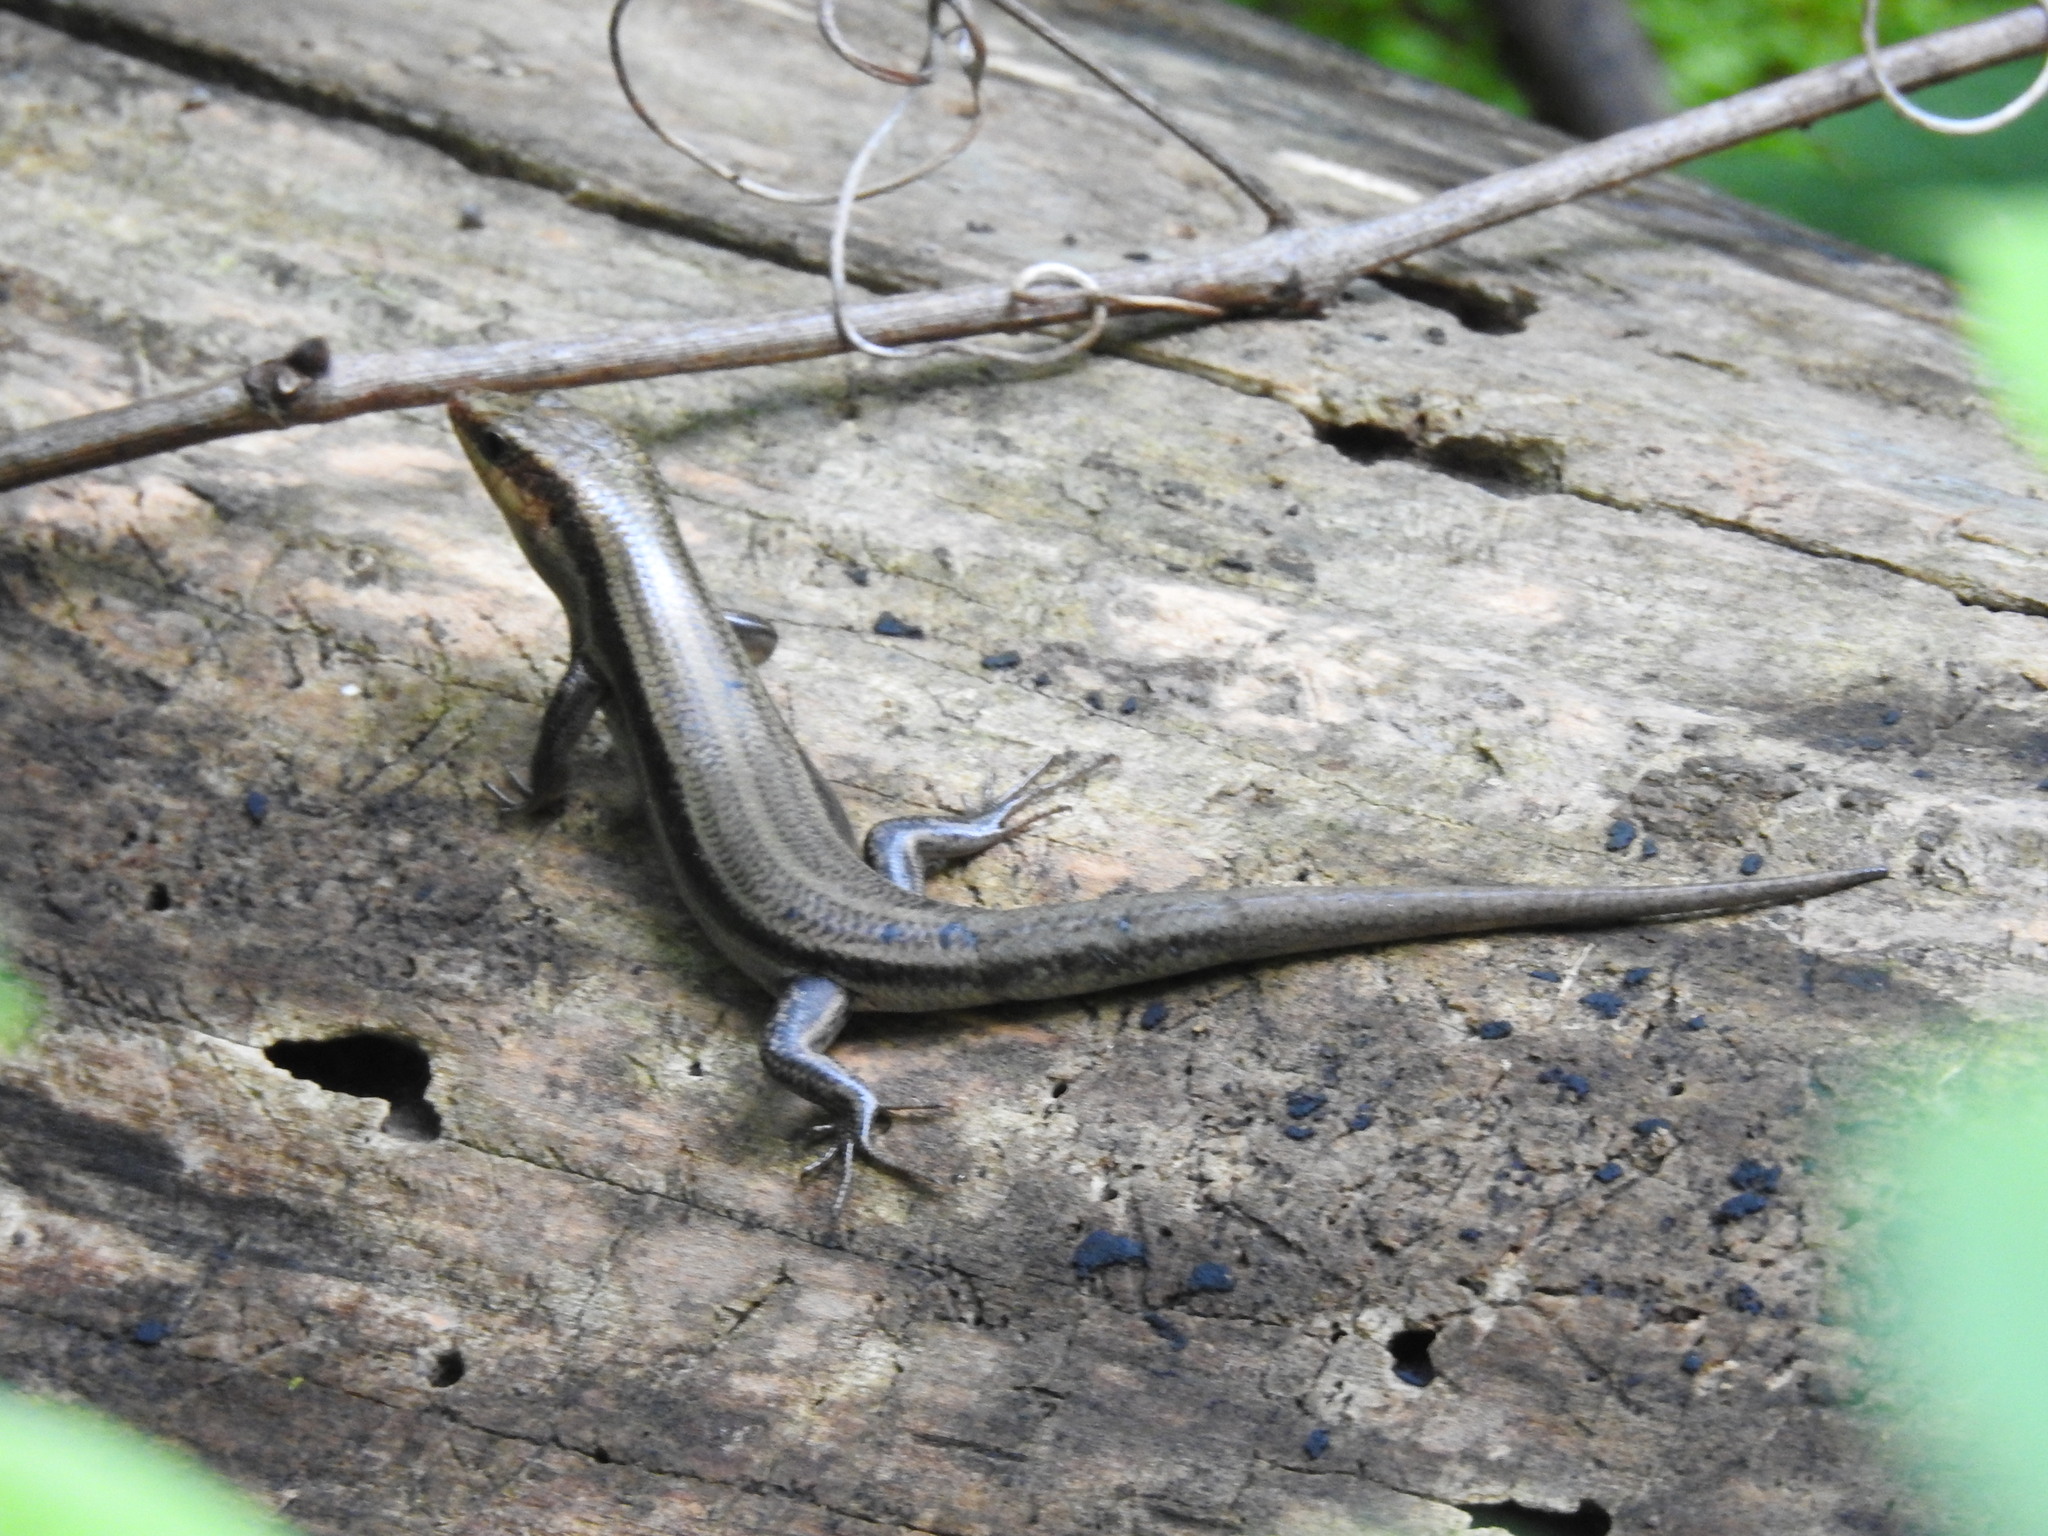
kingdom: Animalia
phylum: Chordata
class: Squamata
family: Scincidae
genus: Plestiodon
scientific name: Plestiodon fasciatus
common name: Five-lined skink
